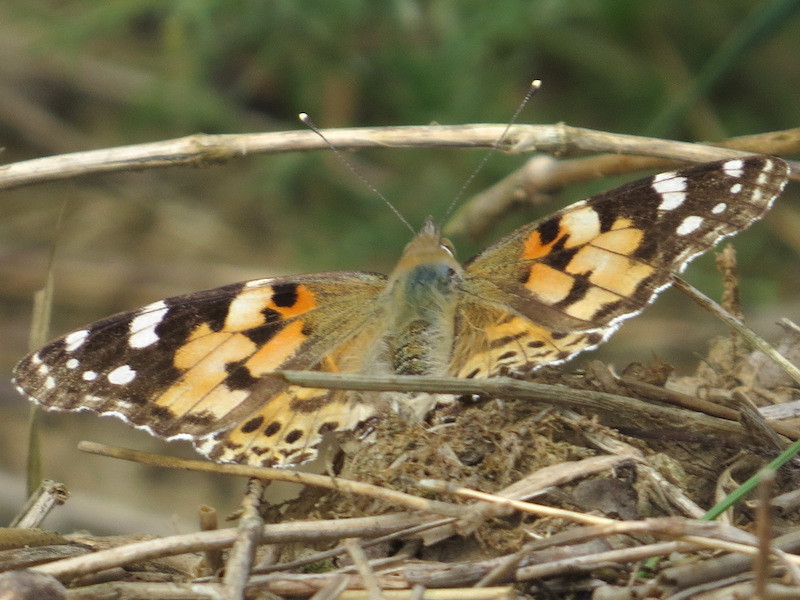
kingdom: Animalia
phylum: Arthropoda
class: Insecta
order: Lepidoptera
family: Nymphalidae
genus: Vanessa
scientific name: Vanessa cardui
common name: Painted lady
